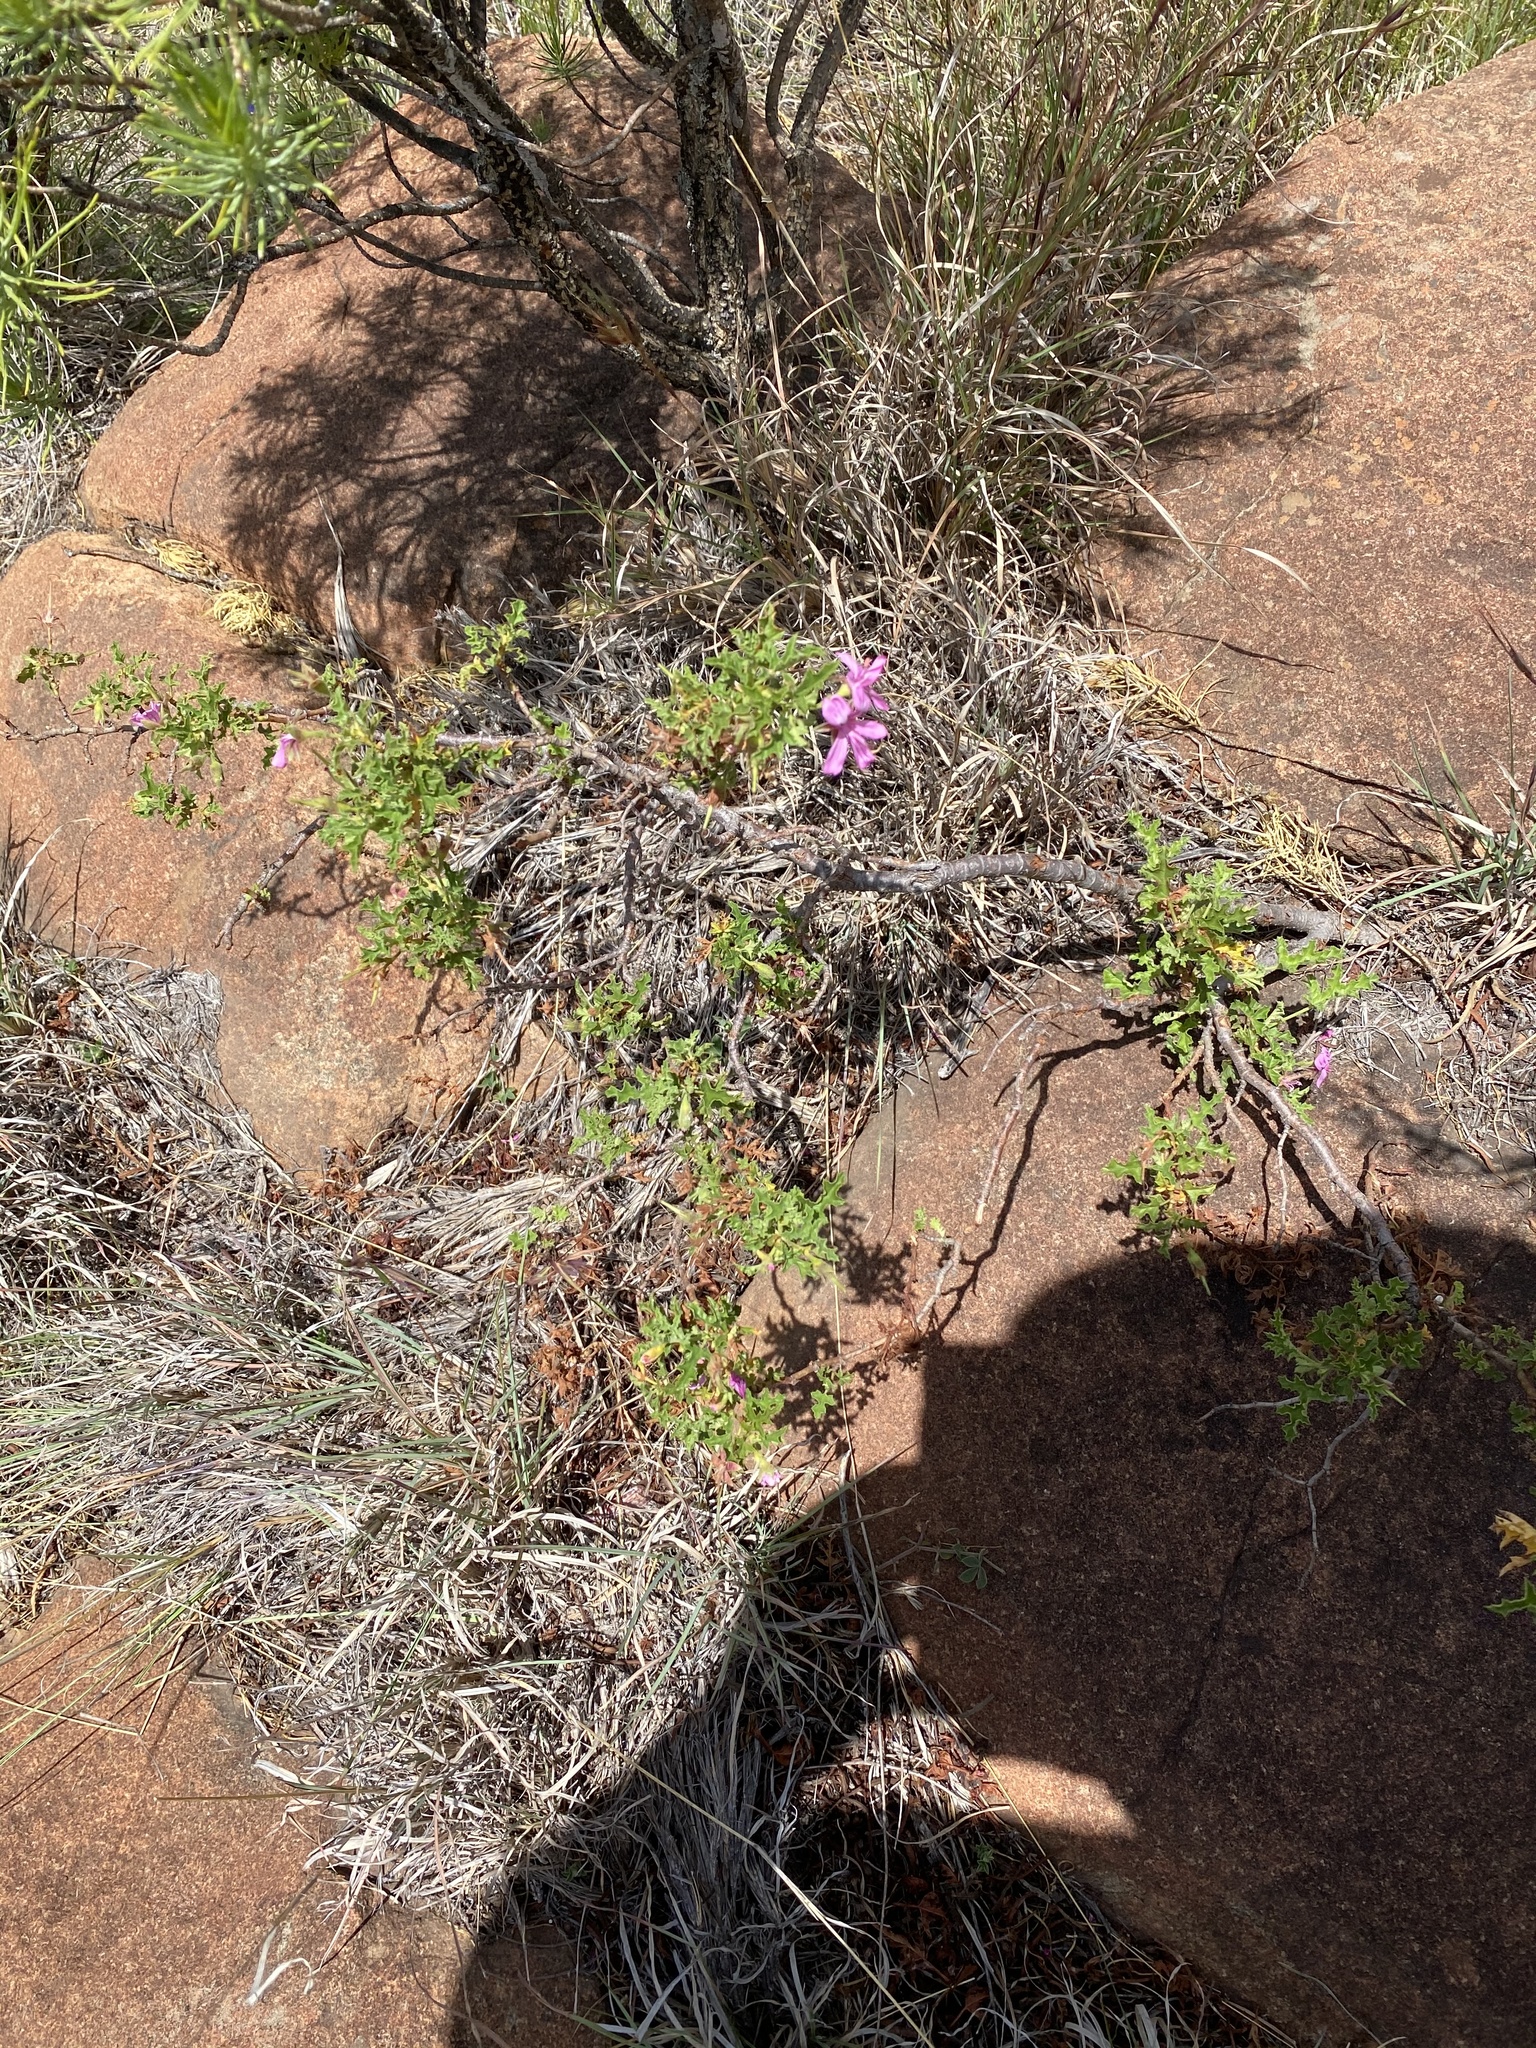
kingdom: Plantae
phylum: Tracheophyta
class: Magnoliopsida
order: Geraniales
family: Geraniaceae
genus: Pelargonium
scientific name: Pelargonium glutinosum
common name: Pheasant-foot geranium
